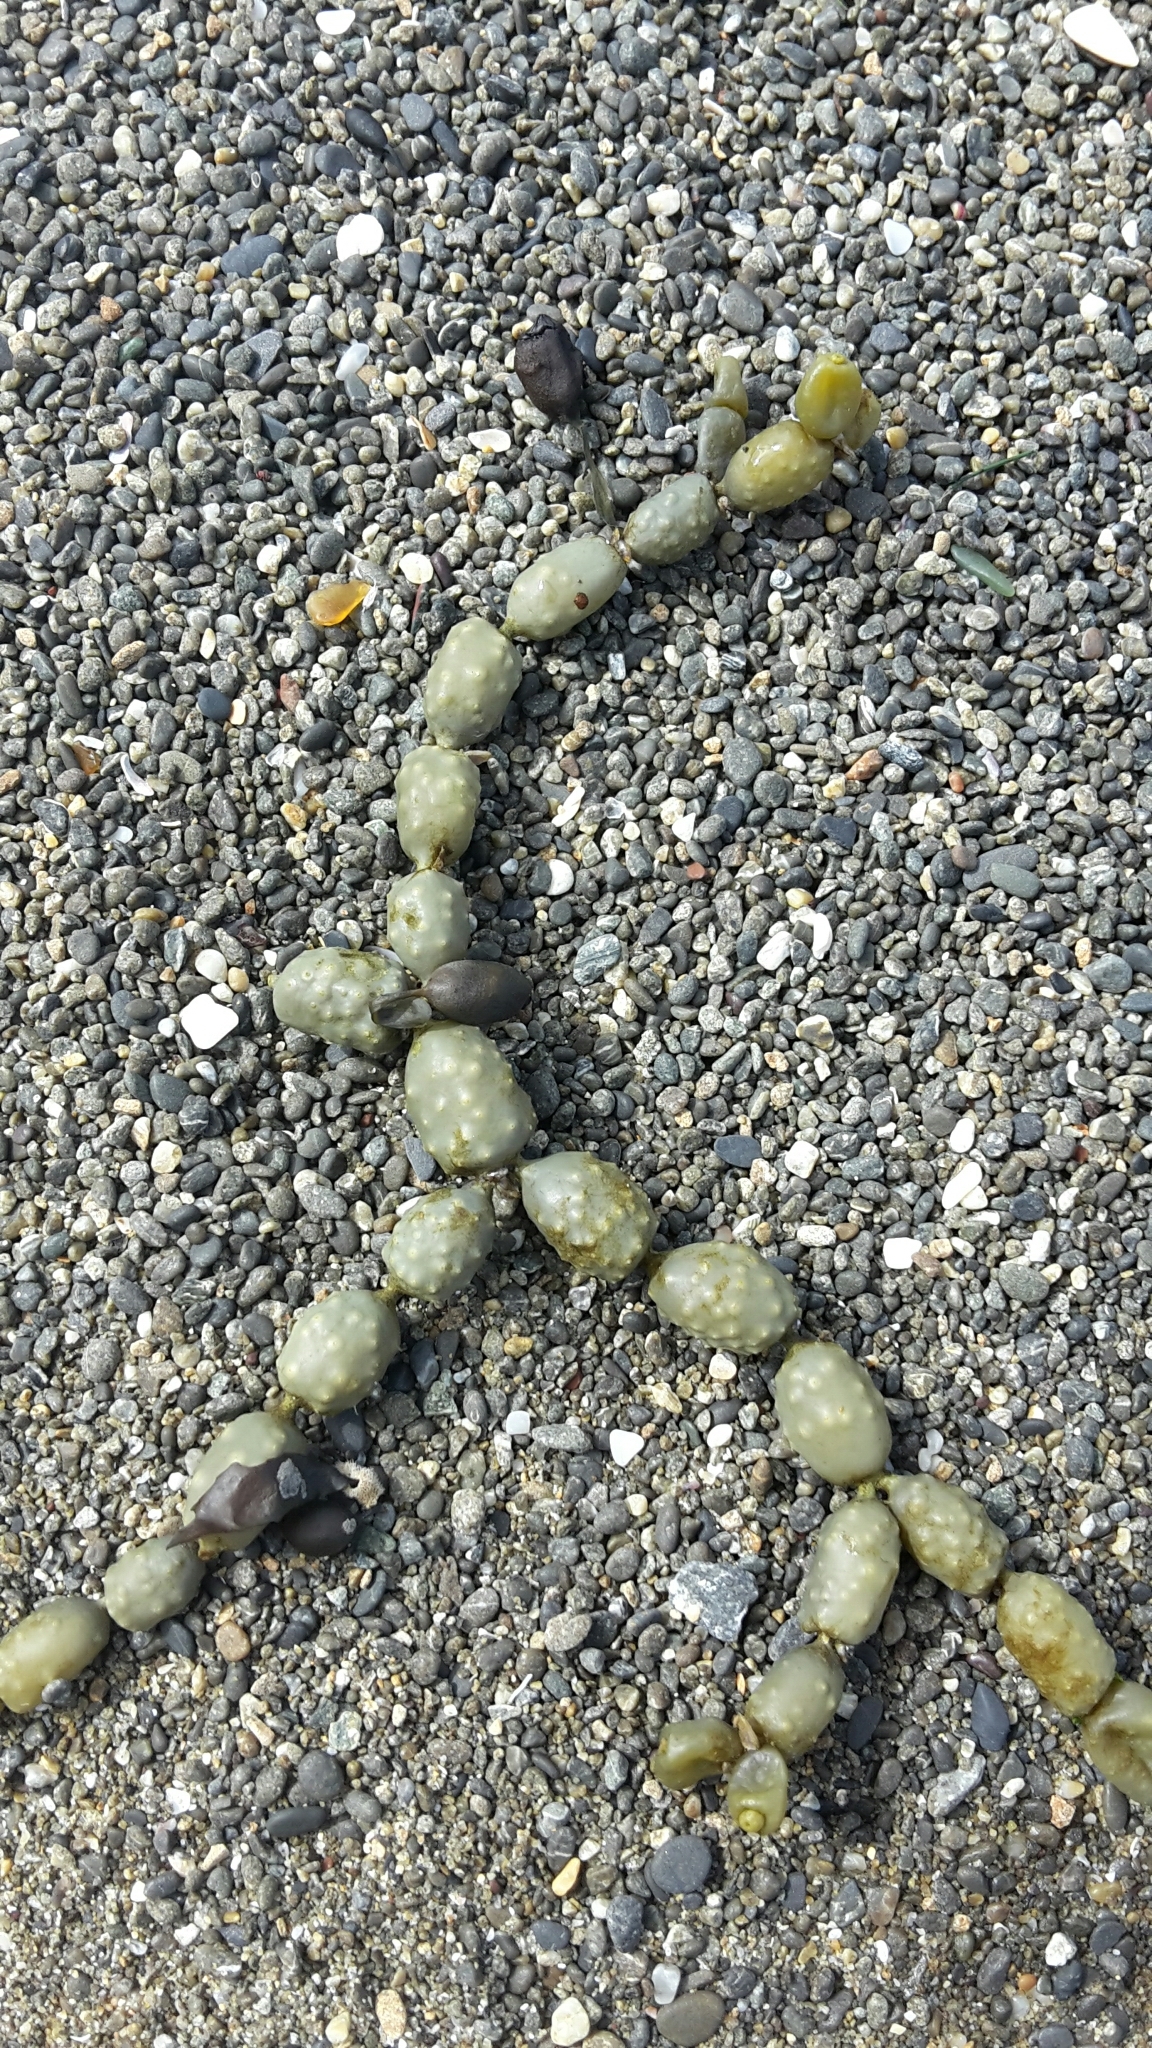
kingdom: Chromista
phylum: Ochrophyta
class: Phaeophyceae
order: Fucales
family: Hormosiraceae
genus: Hormosira
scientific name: Hormosira banksii
